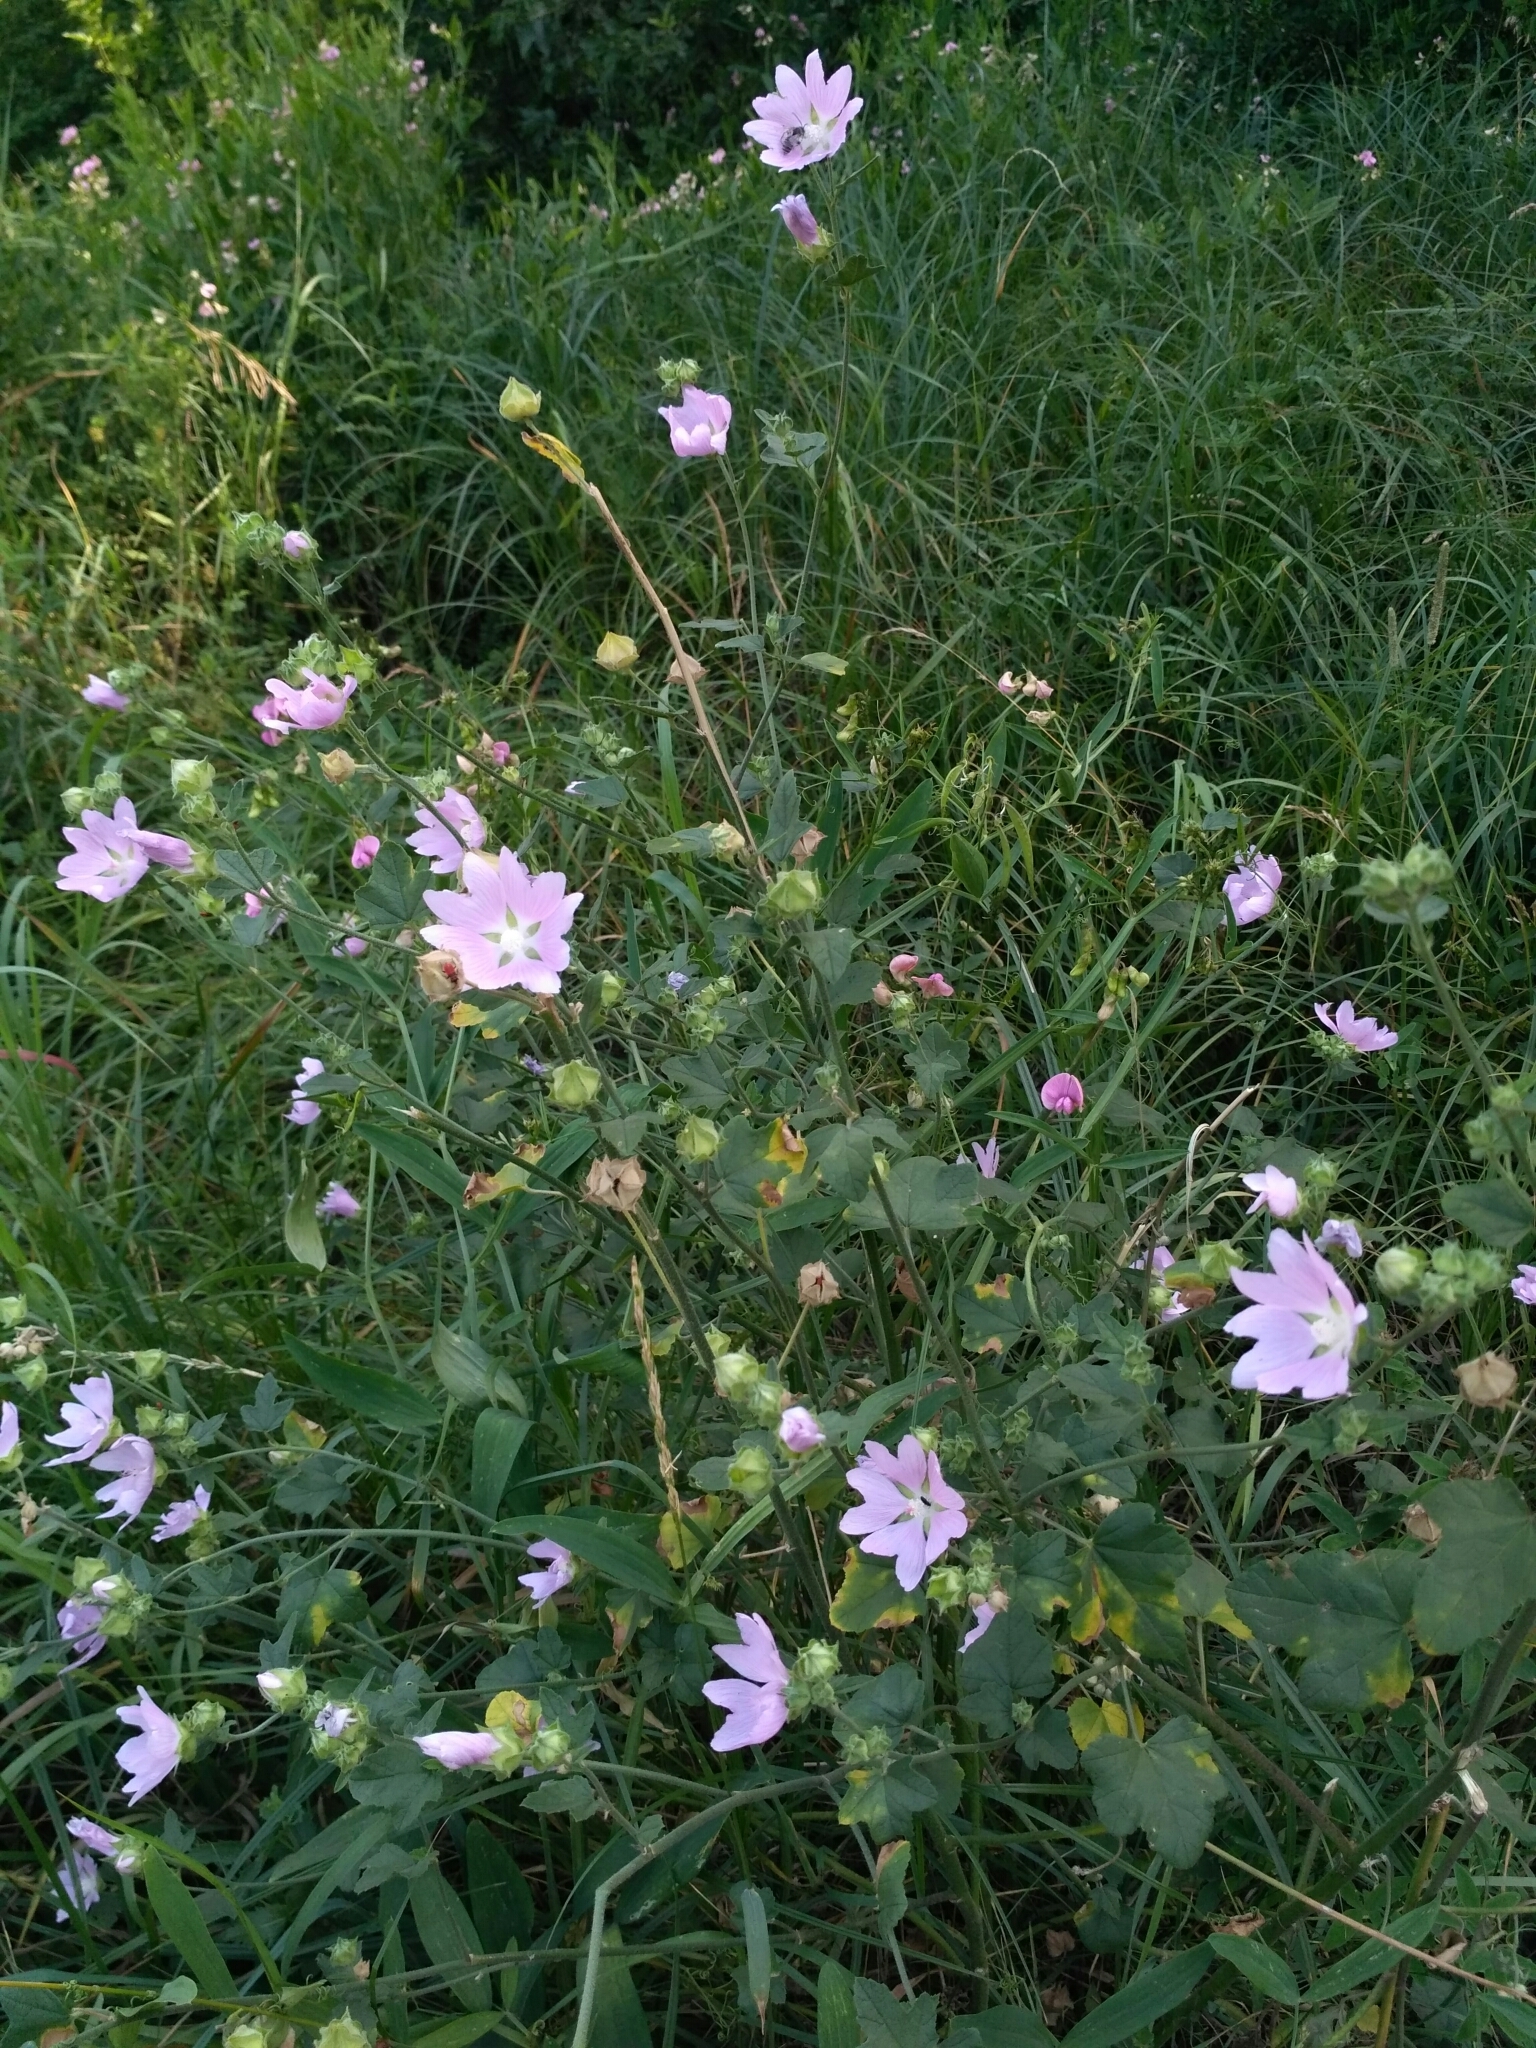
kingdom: Plantae
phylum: Tracheophyta
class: Magnoliopsida
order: Malvales
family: Malvaceae
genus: Malva
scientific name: Malva thuringiaca
